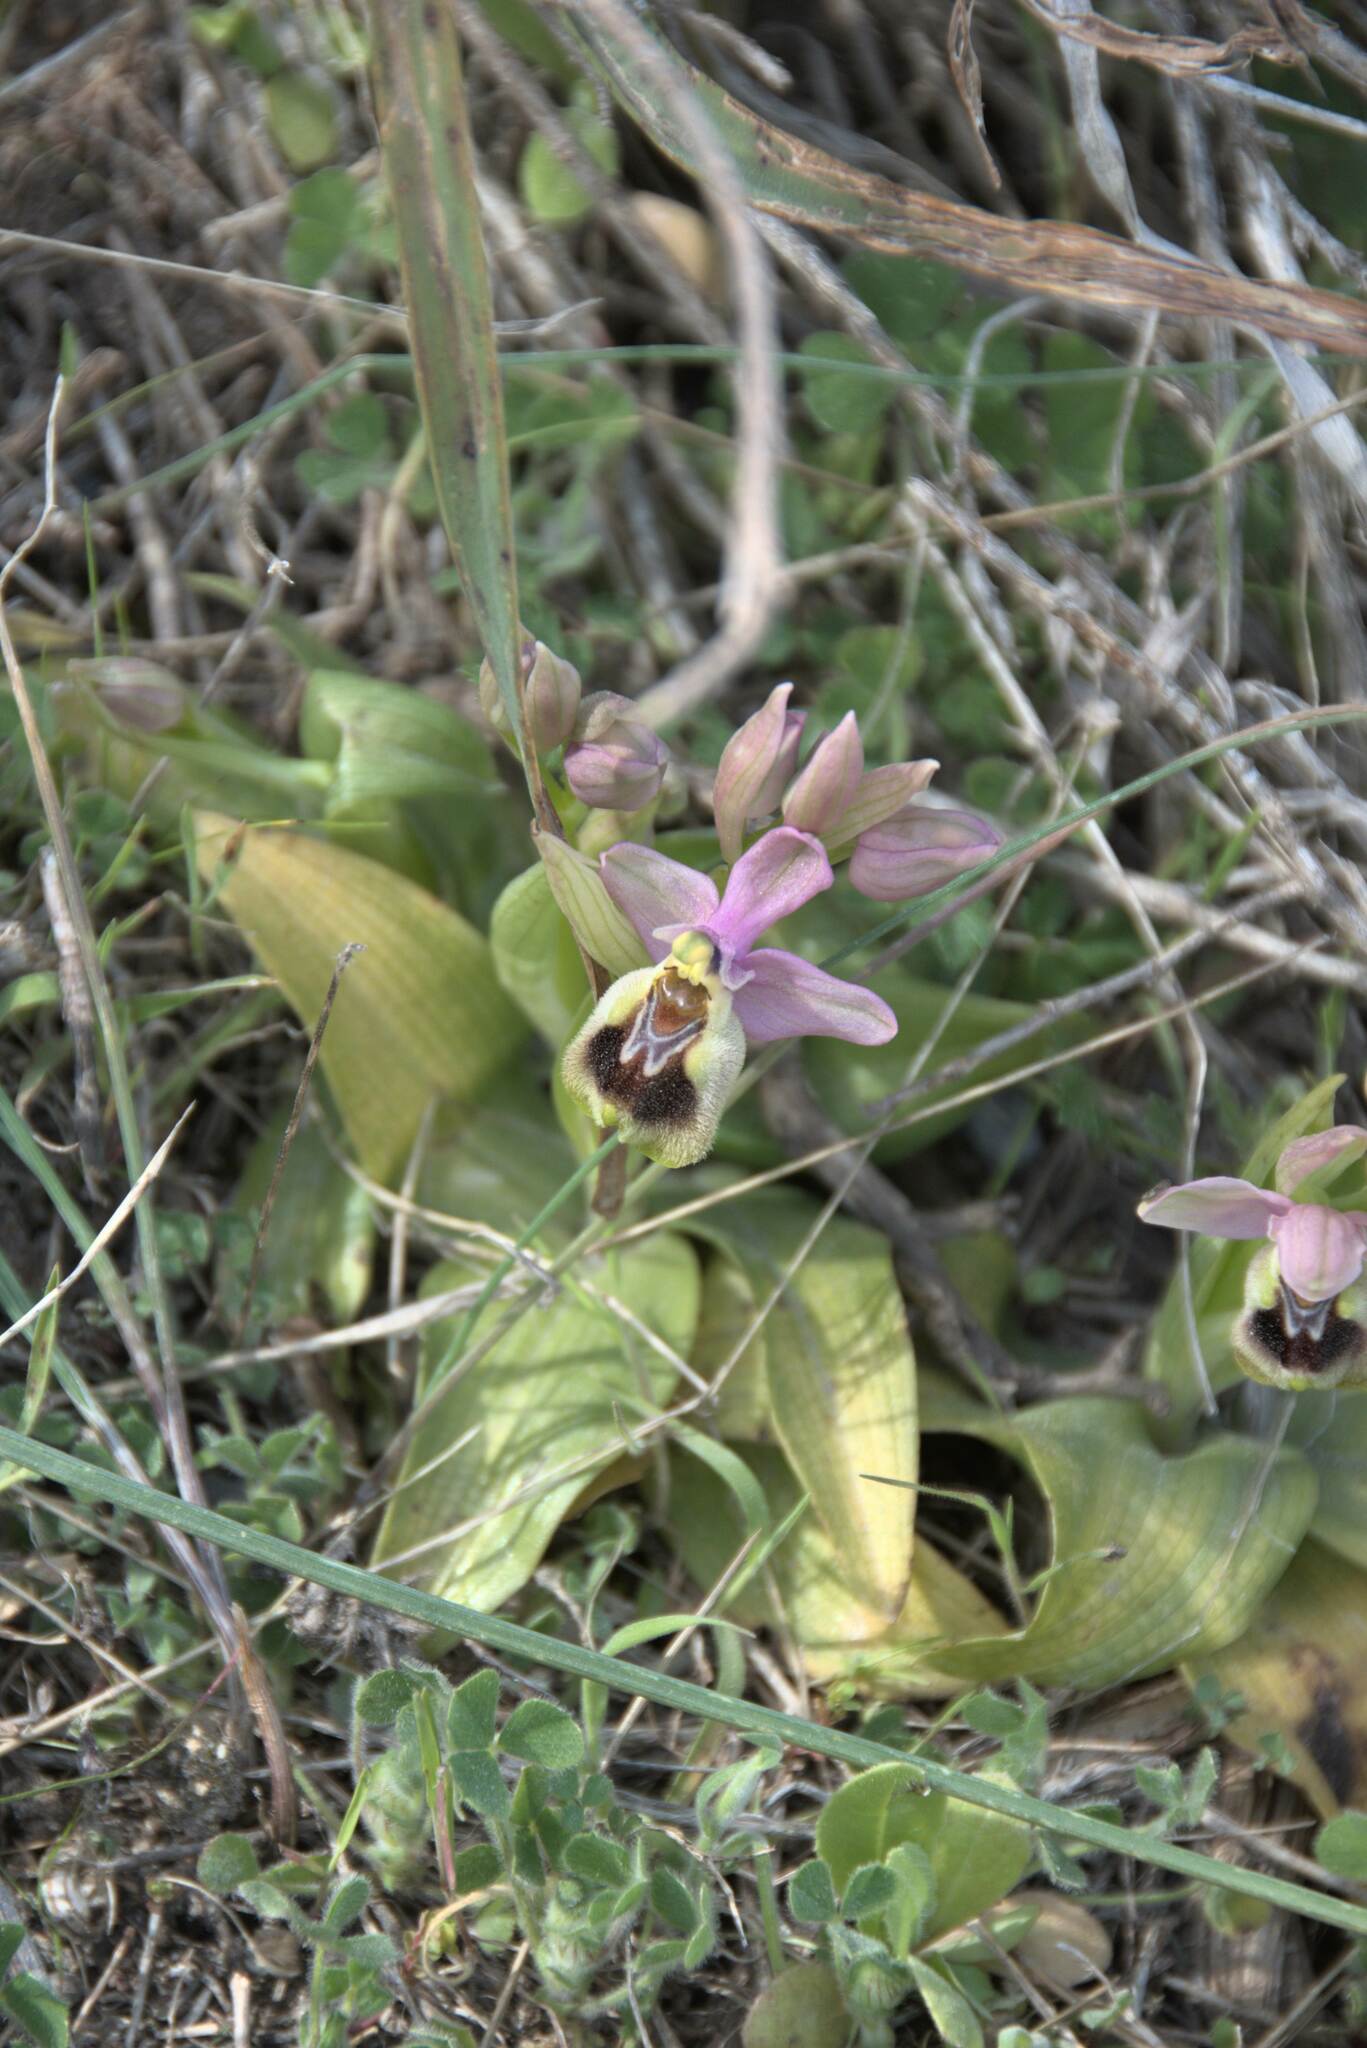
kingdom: Plantae
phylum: Tracheophyta
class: Liliopsida
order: Asparagales
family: Orchidaceae
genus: Ophrys
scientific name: Ophrys tenthredinifera
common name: Sawfly orchid
